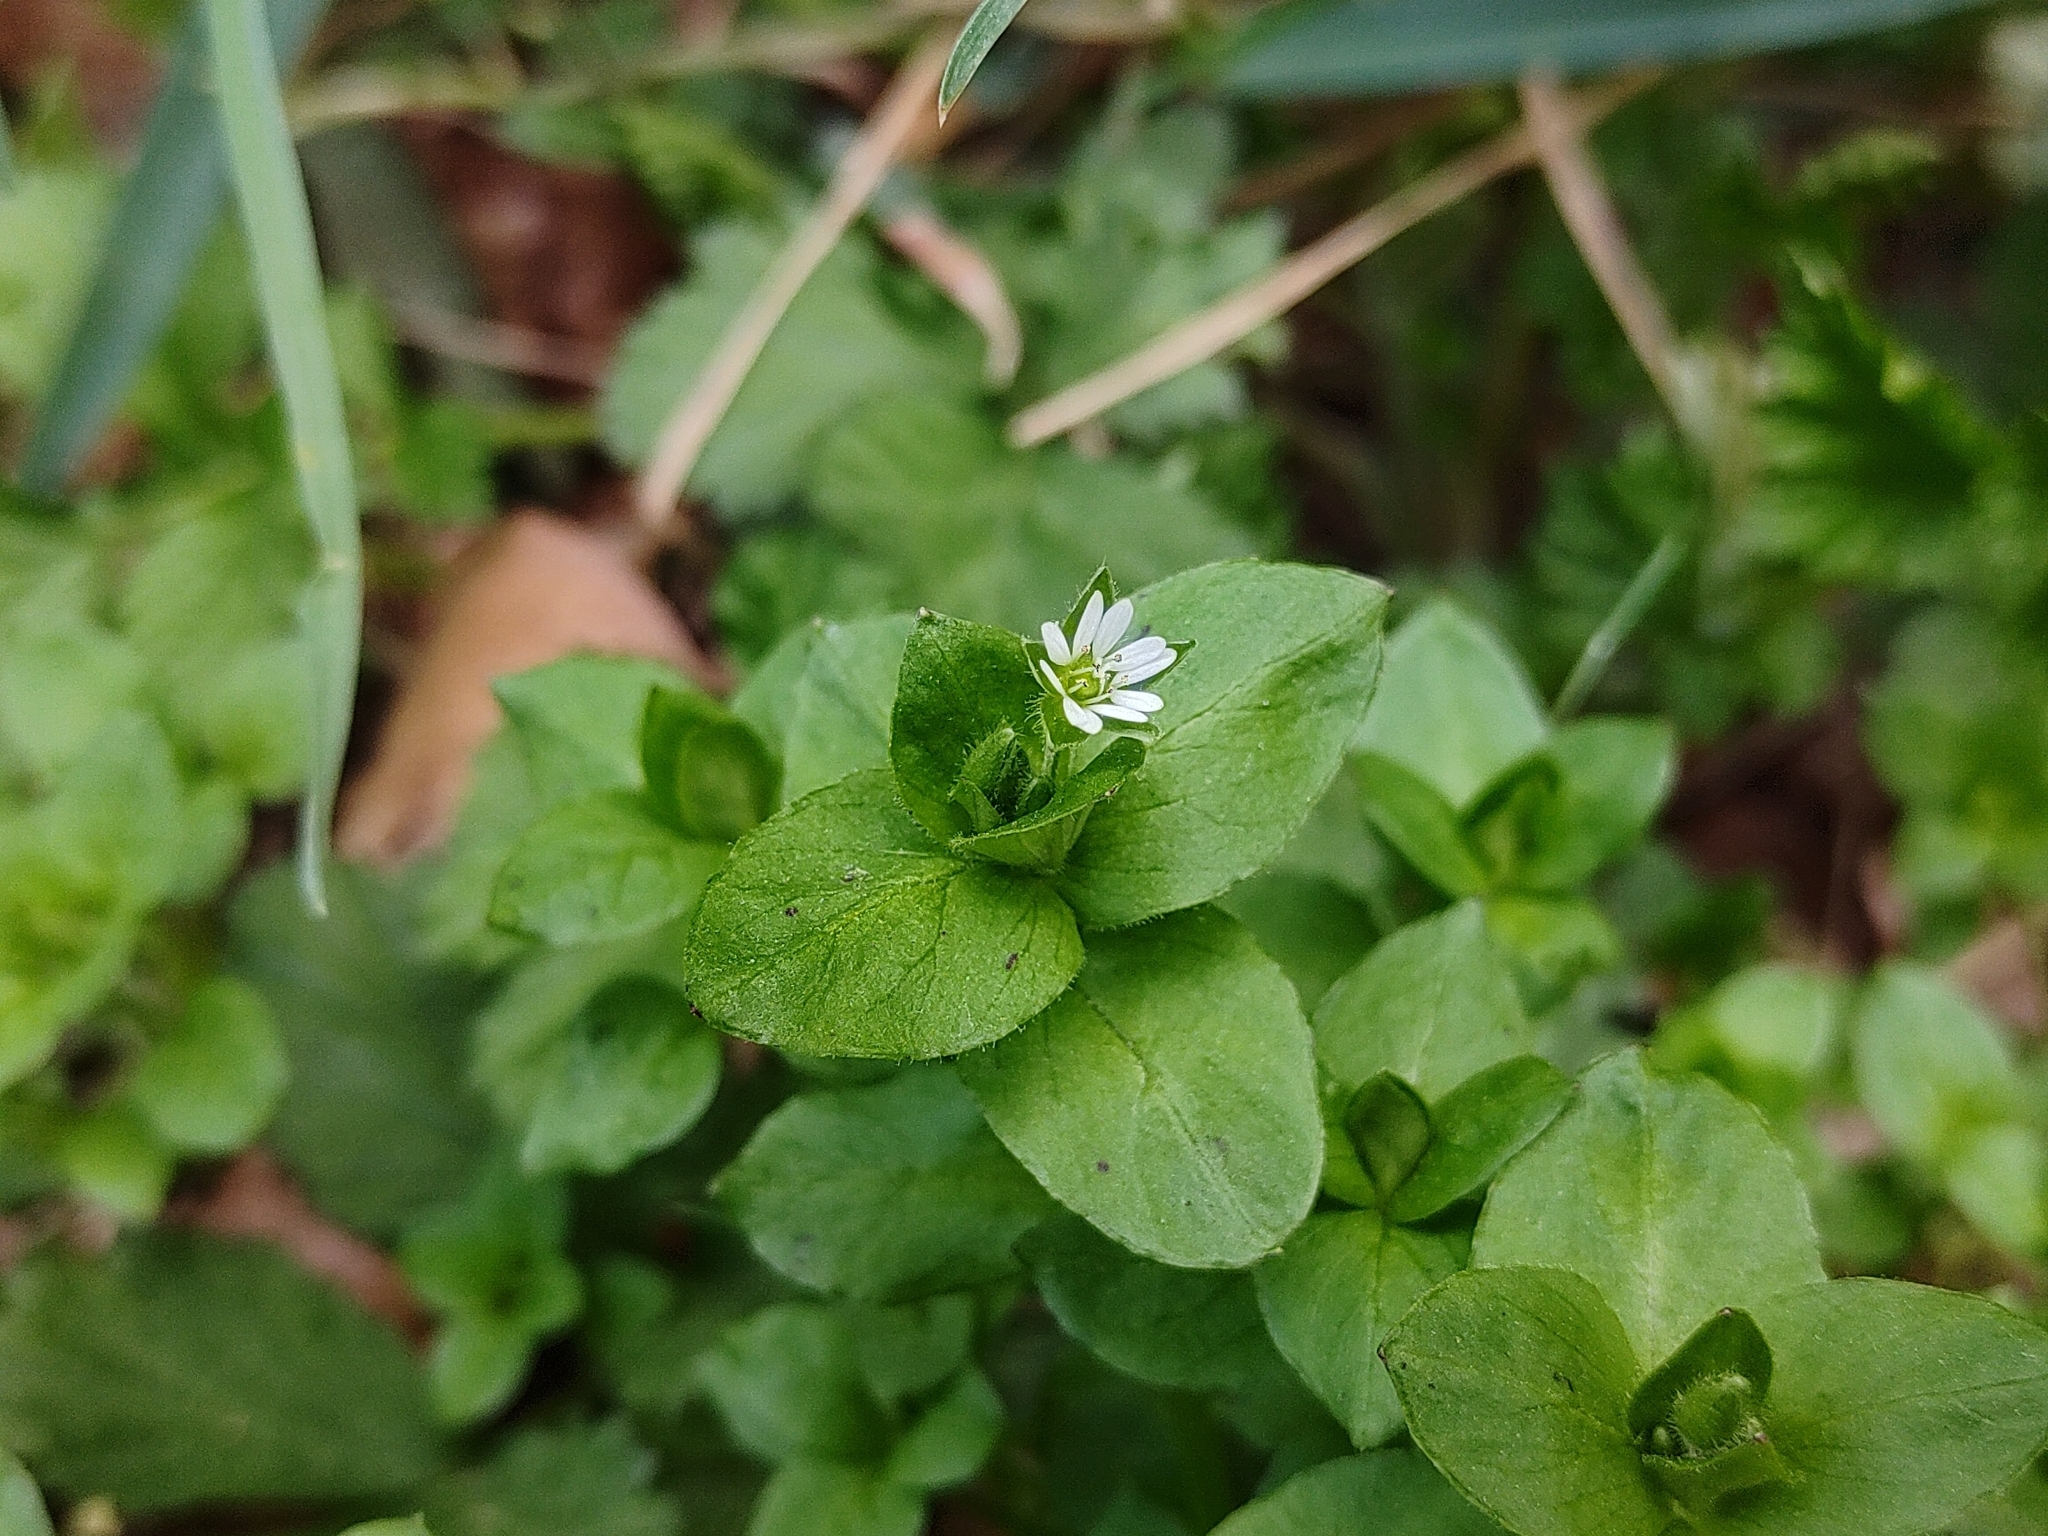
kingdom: Plantae
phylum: Tracheophyta
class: Magnoliopsida
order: Caryophyllales
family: Caryophyllaceae
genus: Stellaria
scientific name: Stellaria media
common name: Common chickweed
